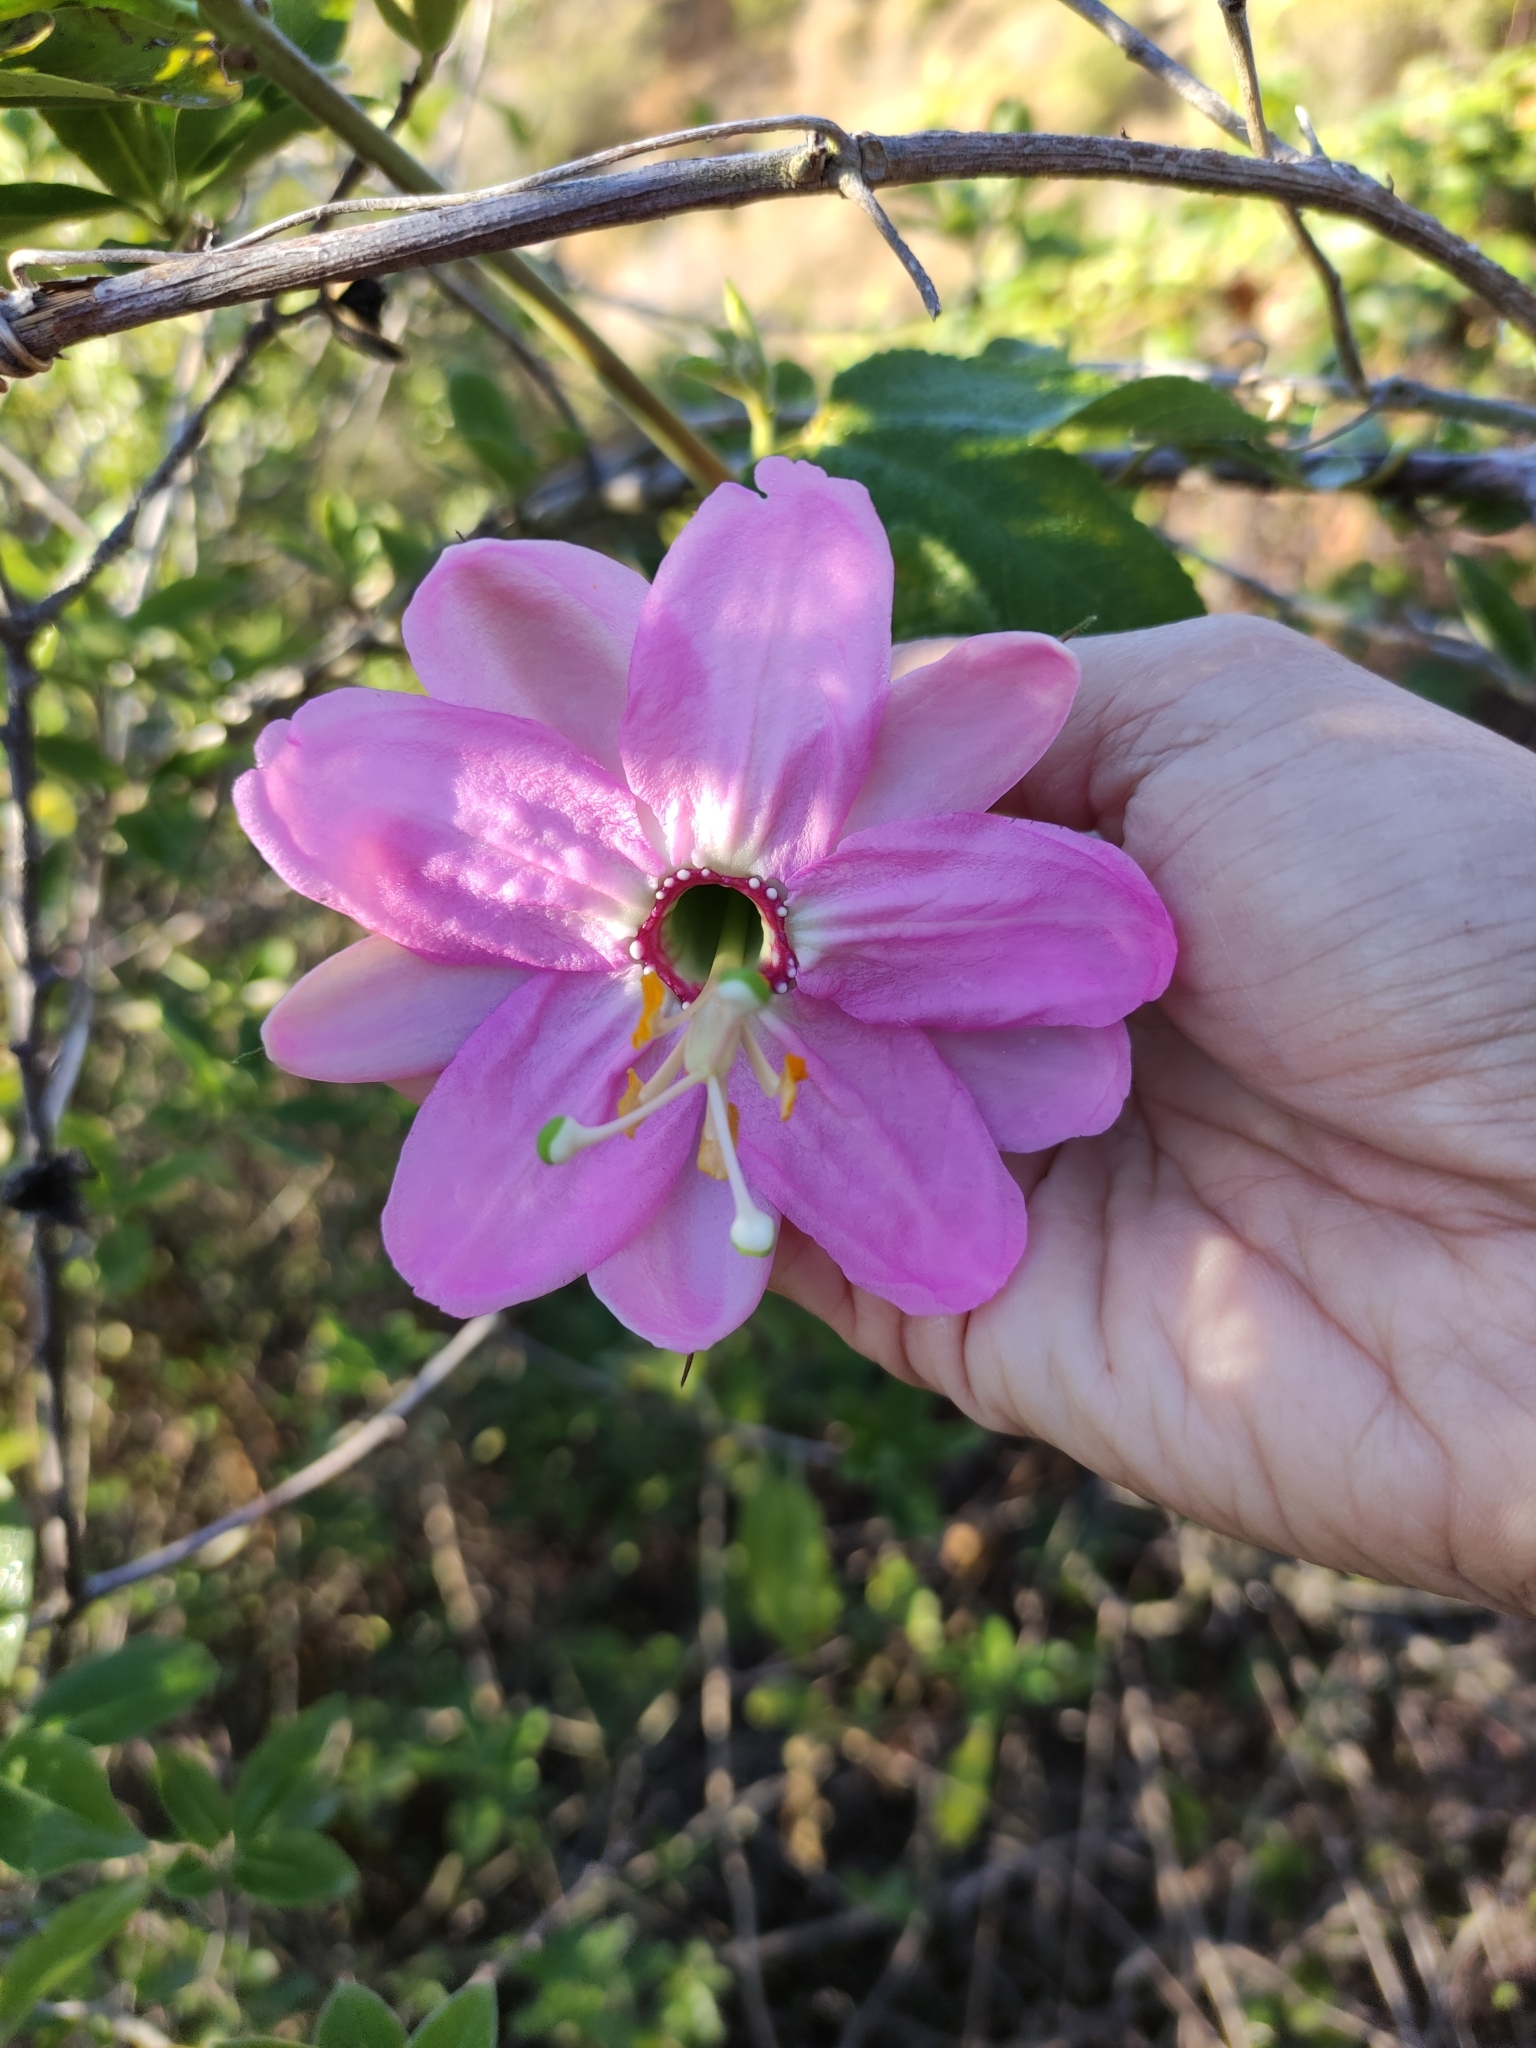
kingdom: Plantae
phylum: Tracheophyta
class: Magnoliopsida
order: Malpighiales
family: Passifloraceae
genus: Passiflora
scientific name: Passiflora tripartita
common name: Banana poka
